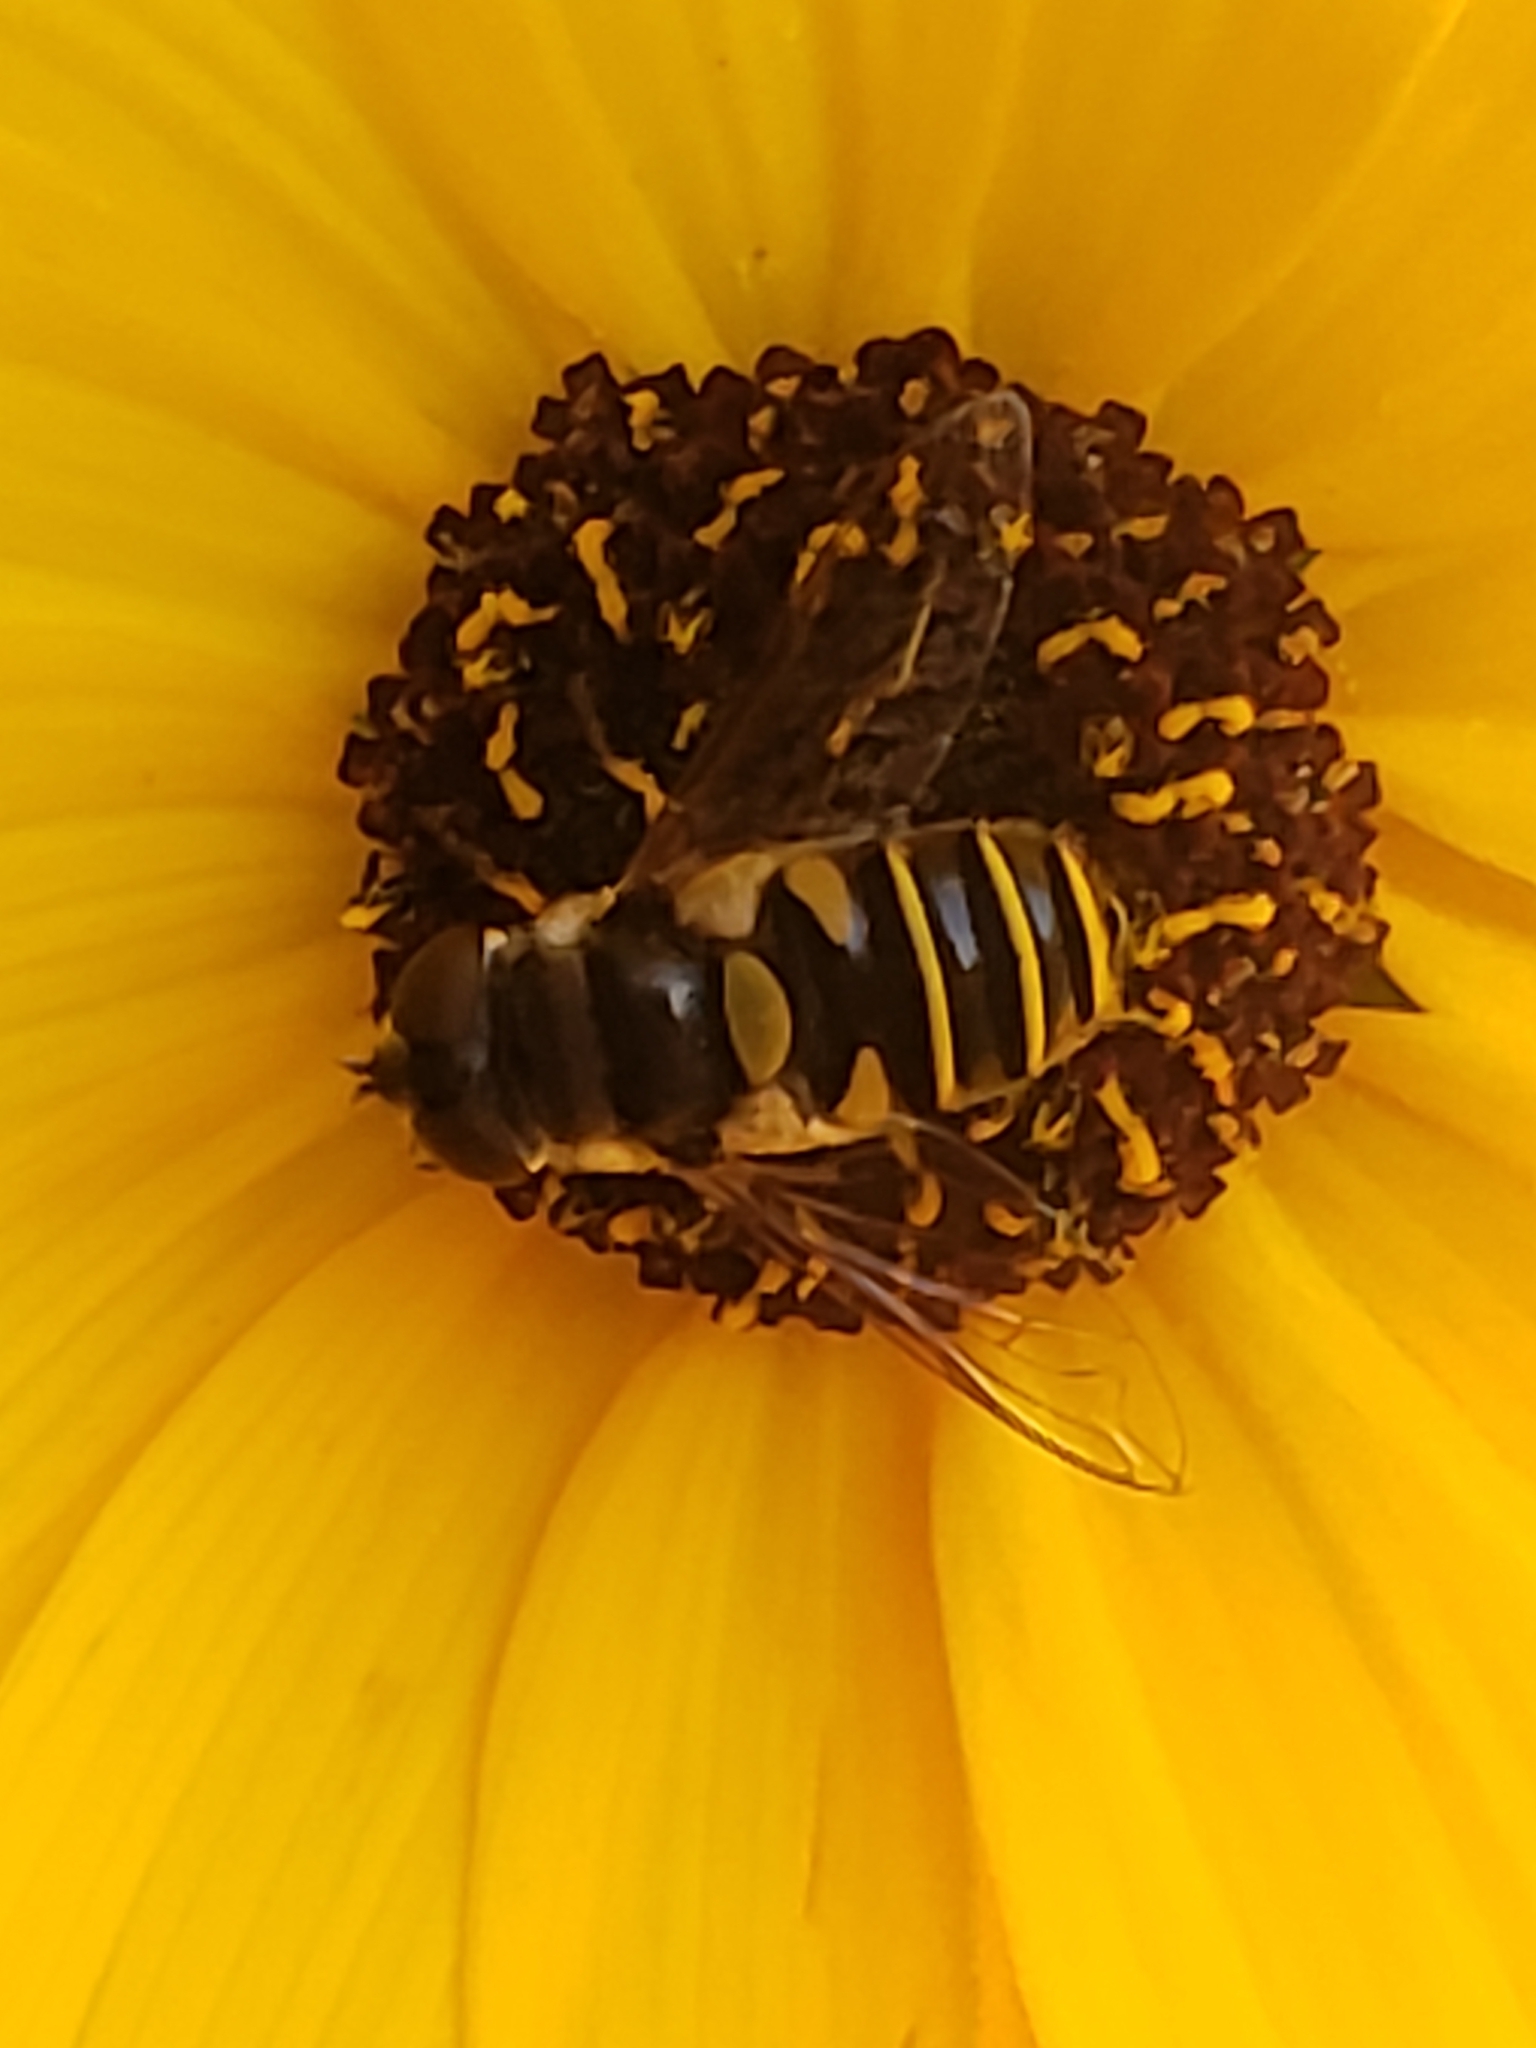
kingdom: Animalia
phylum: Arthropoda
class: Insecta
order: Diptera
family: Syrphidae
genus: Eristalis
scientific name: Eristalis transversa
